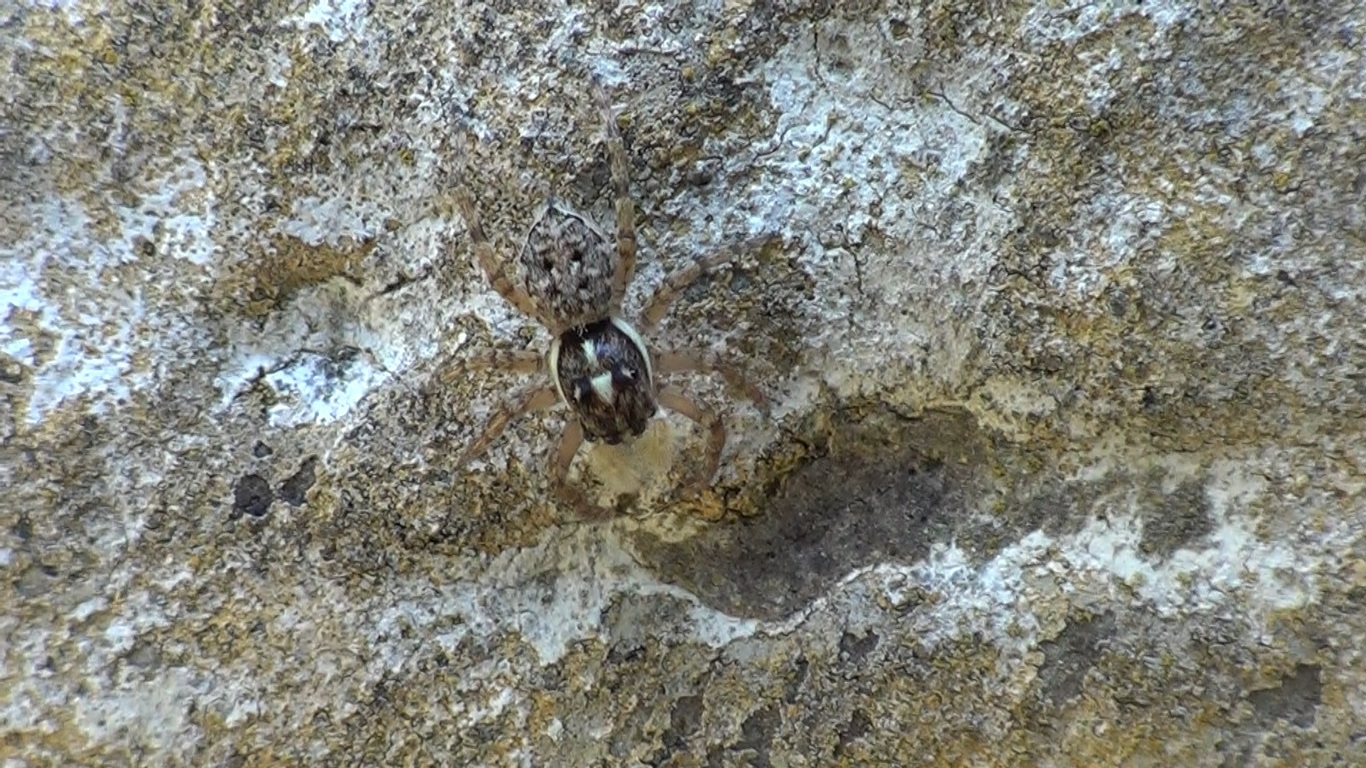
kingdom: Animalia
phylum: Arthropoda
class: Arachnida
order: Araneae
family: Salticidae
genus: Menemerus
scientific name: Menemerus semilimbatus
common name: Jumping spider
